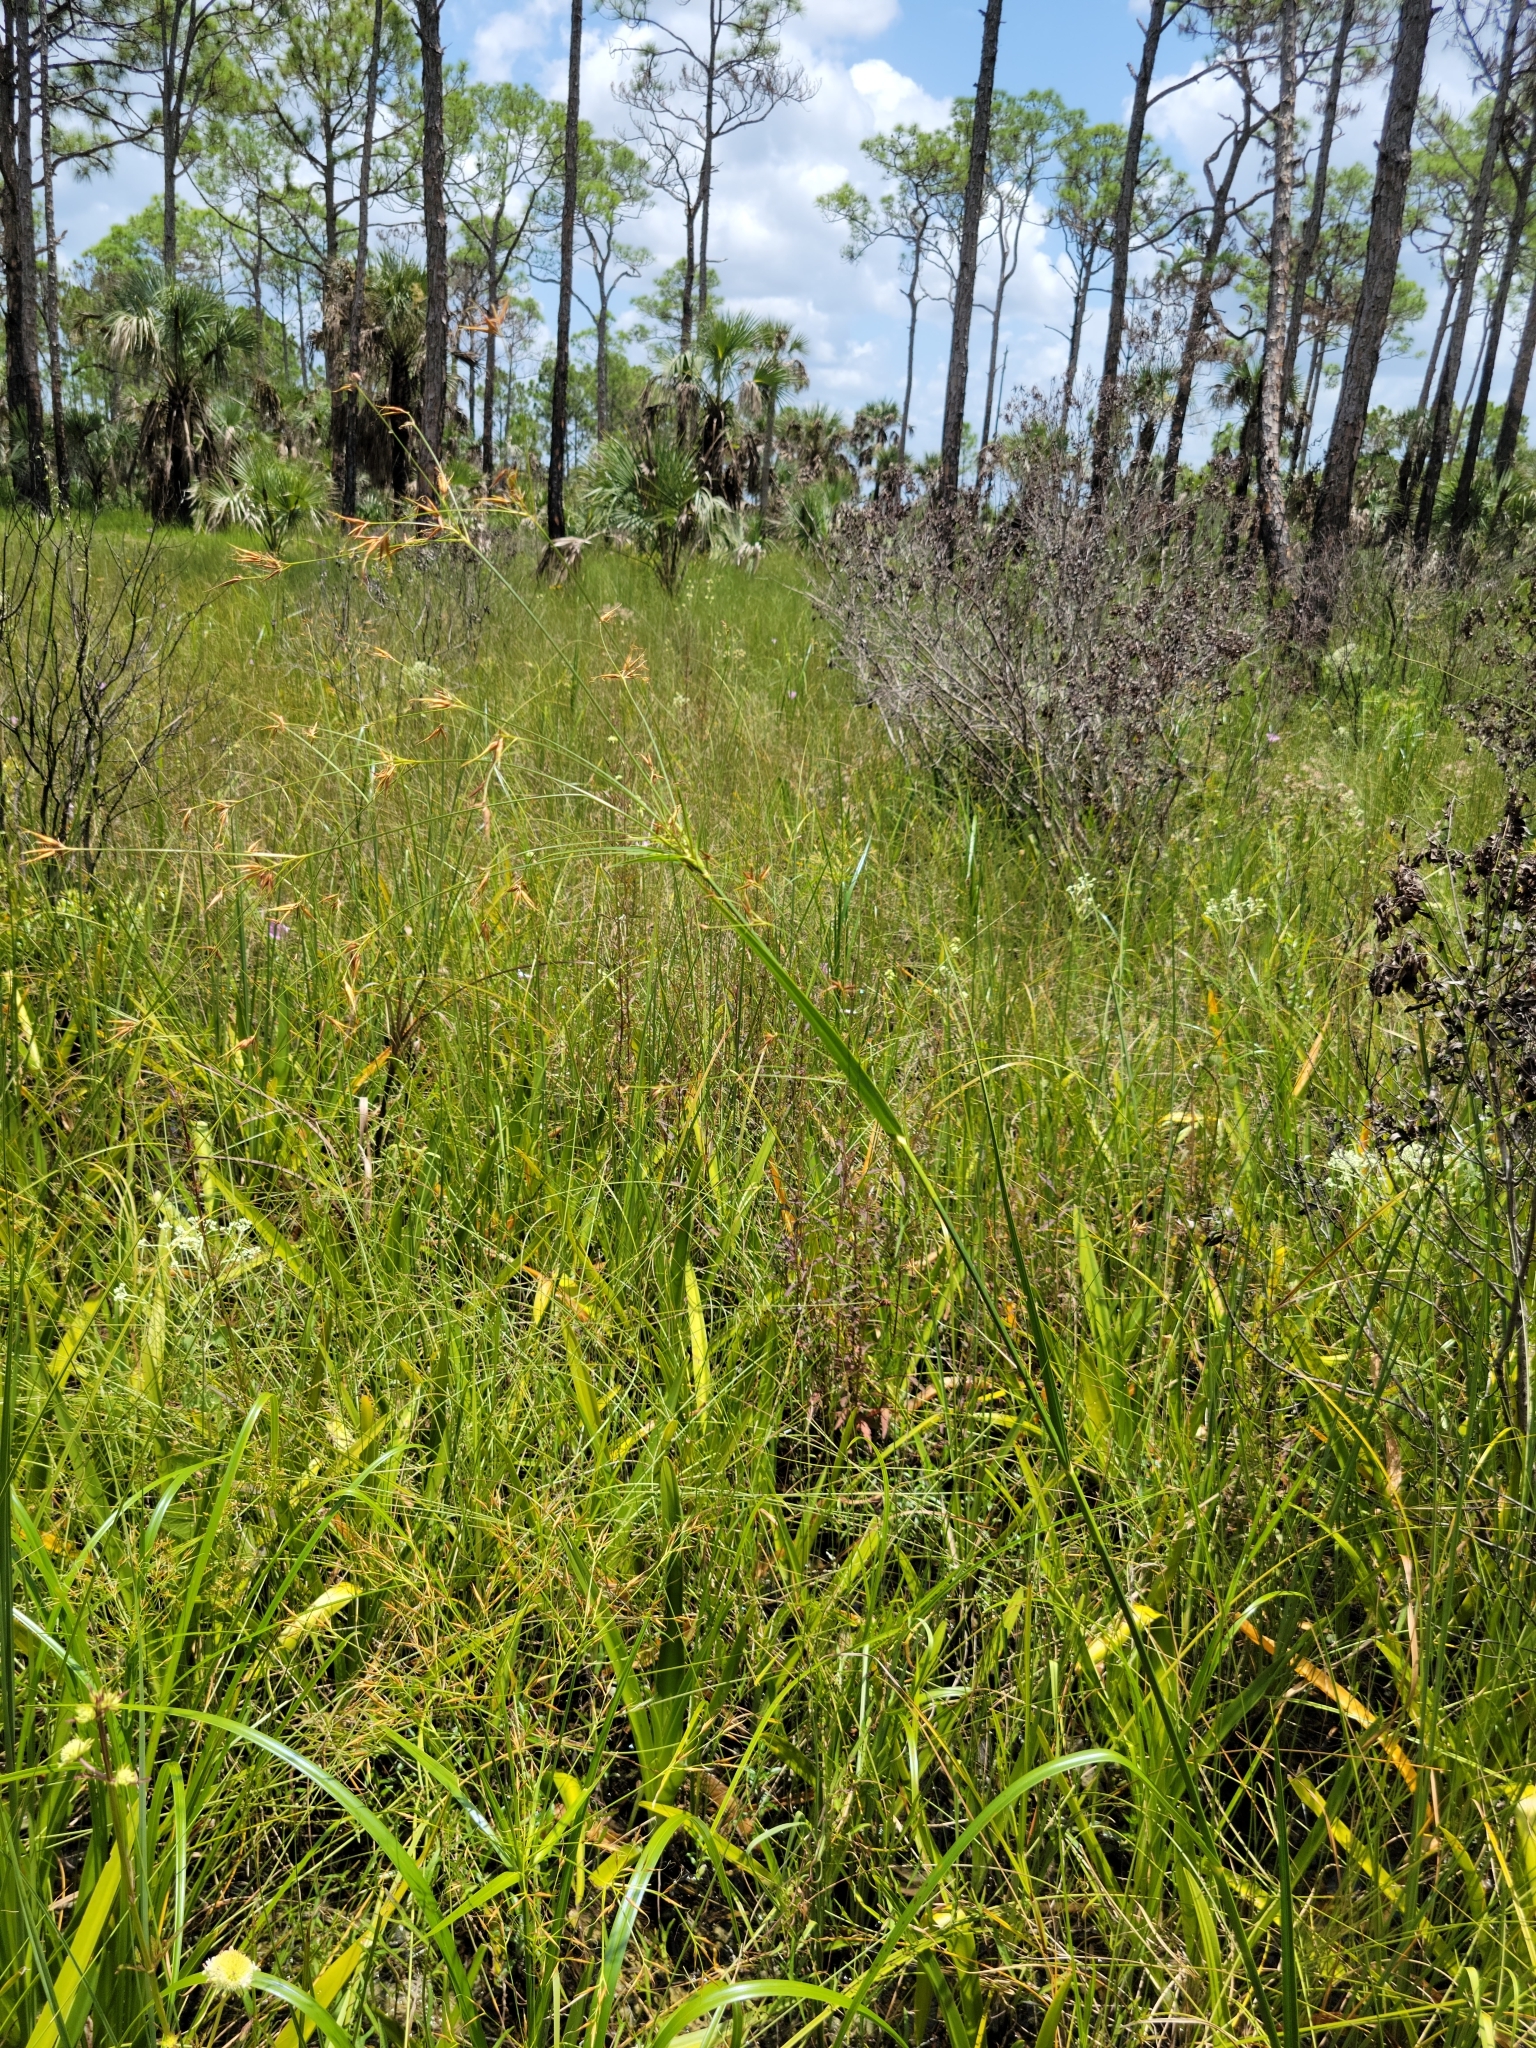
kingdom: Plantae
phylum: Tracheophyta
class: Liliopsida
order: Poales
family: Cyperaceae
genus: Rhynchospora
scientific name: Rhynchospora inundata
